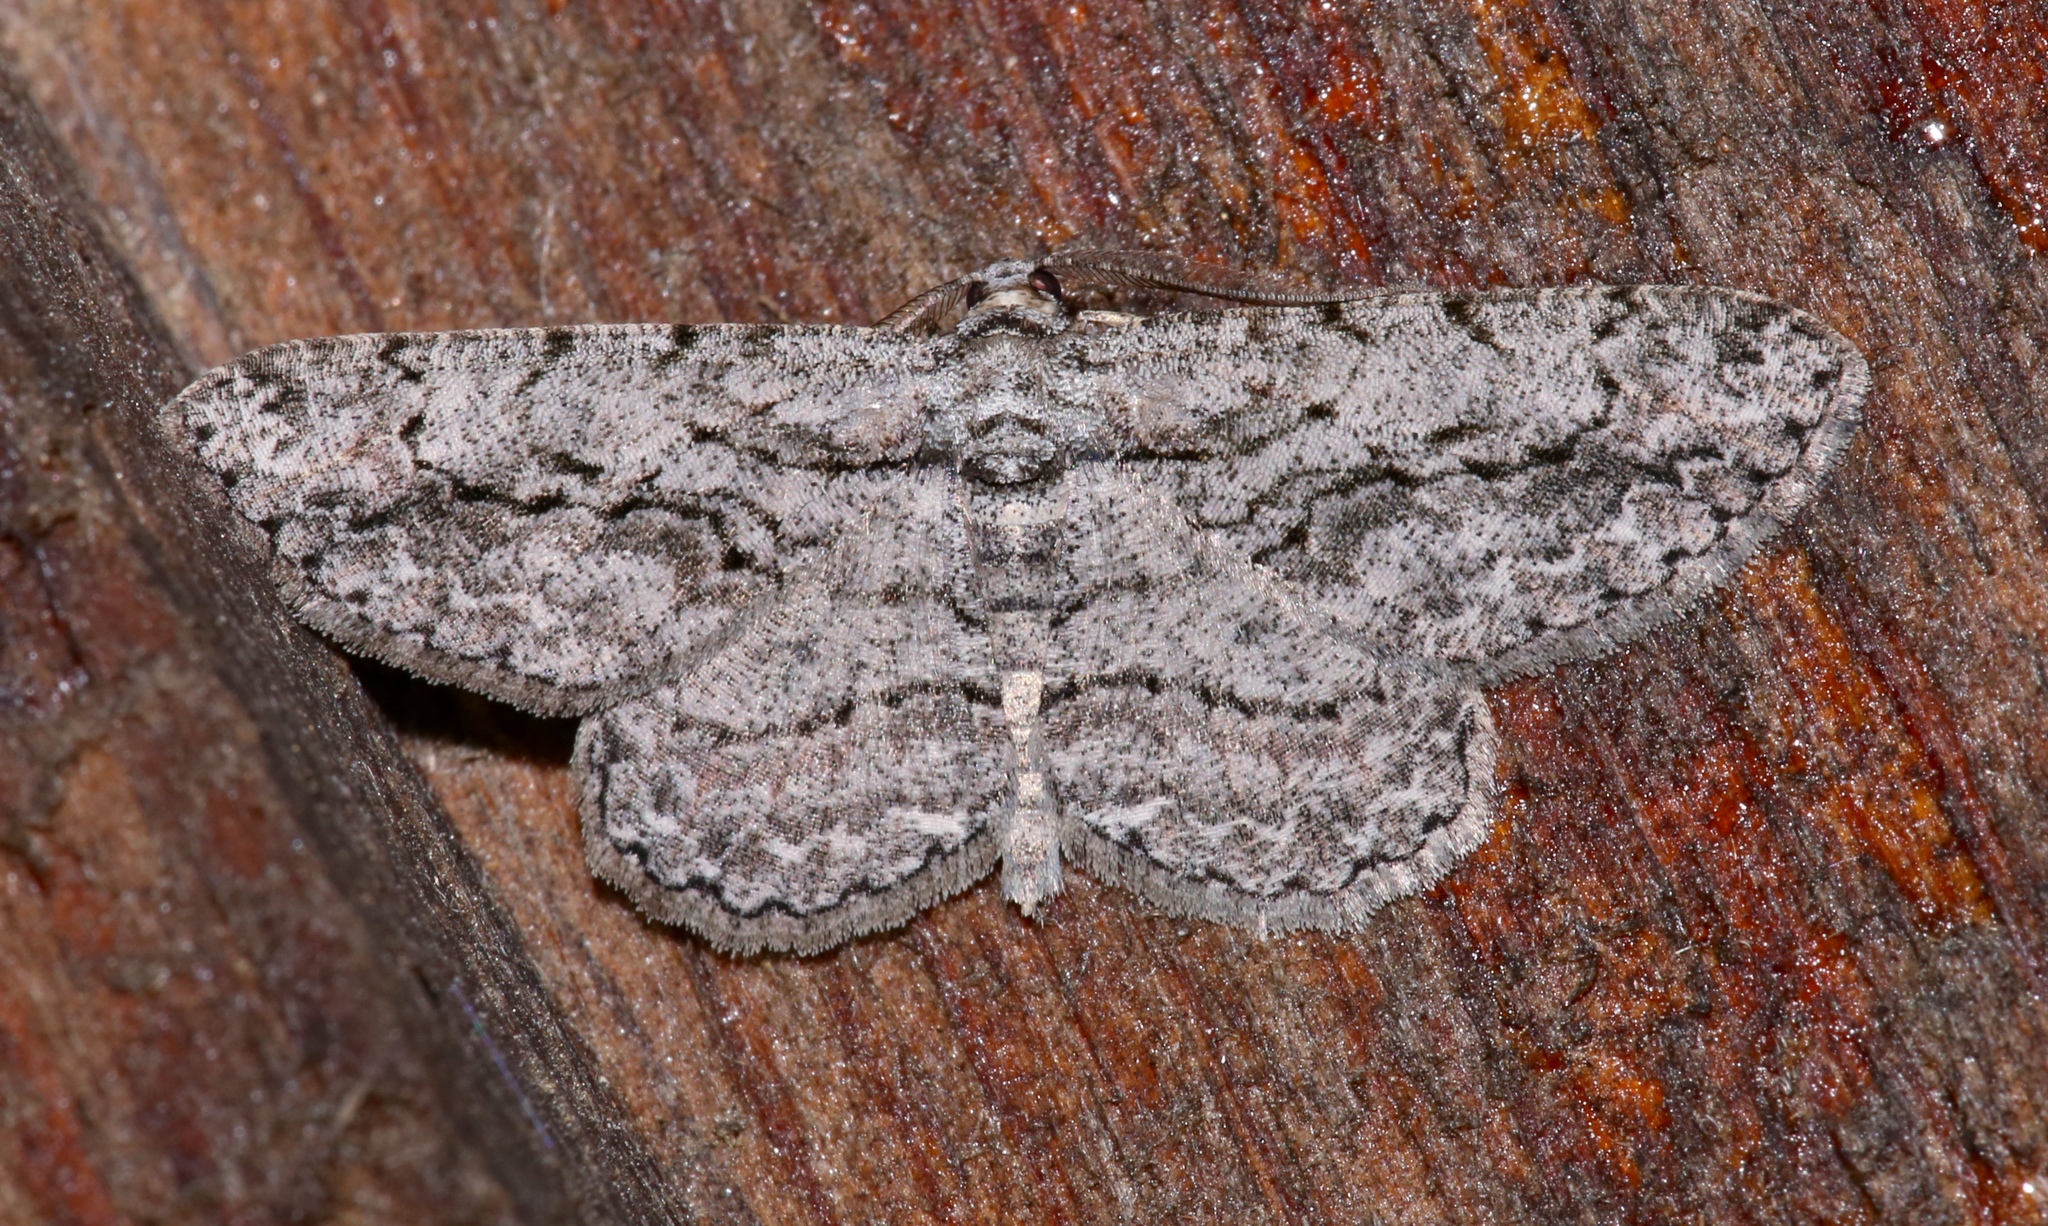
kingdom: Animalia
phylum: Arthropoda
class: Insecta
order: Lepidoptera
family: Geometridae
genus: Anavitrinella
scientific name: Anavitrinella pampinaria
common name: Common gray
